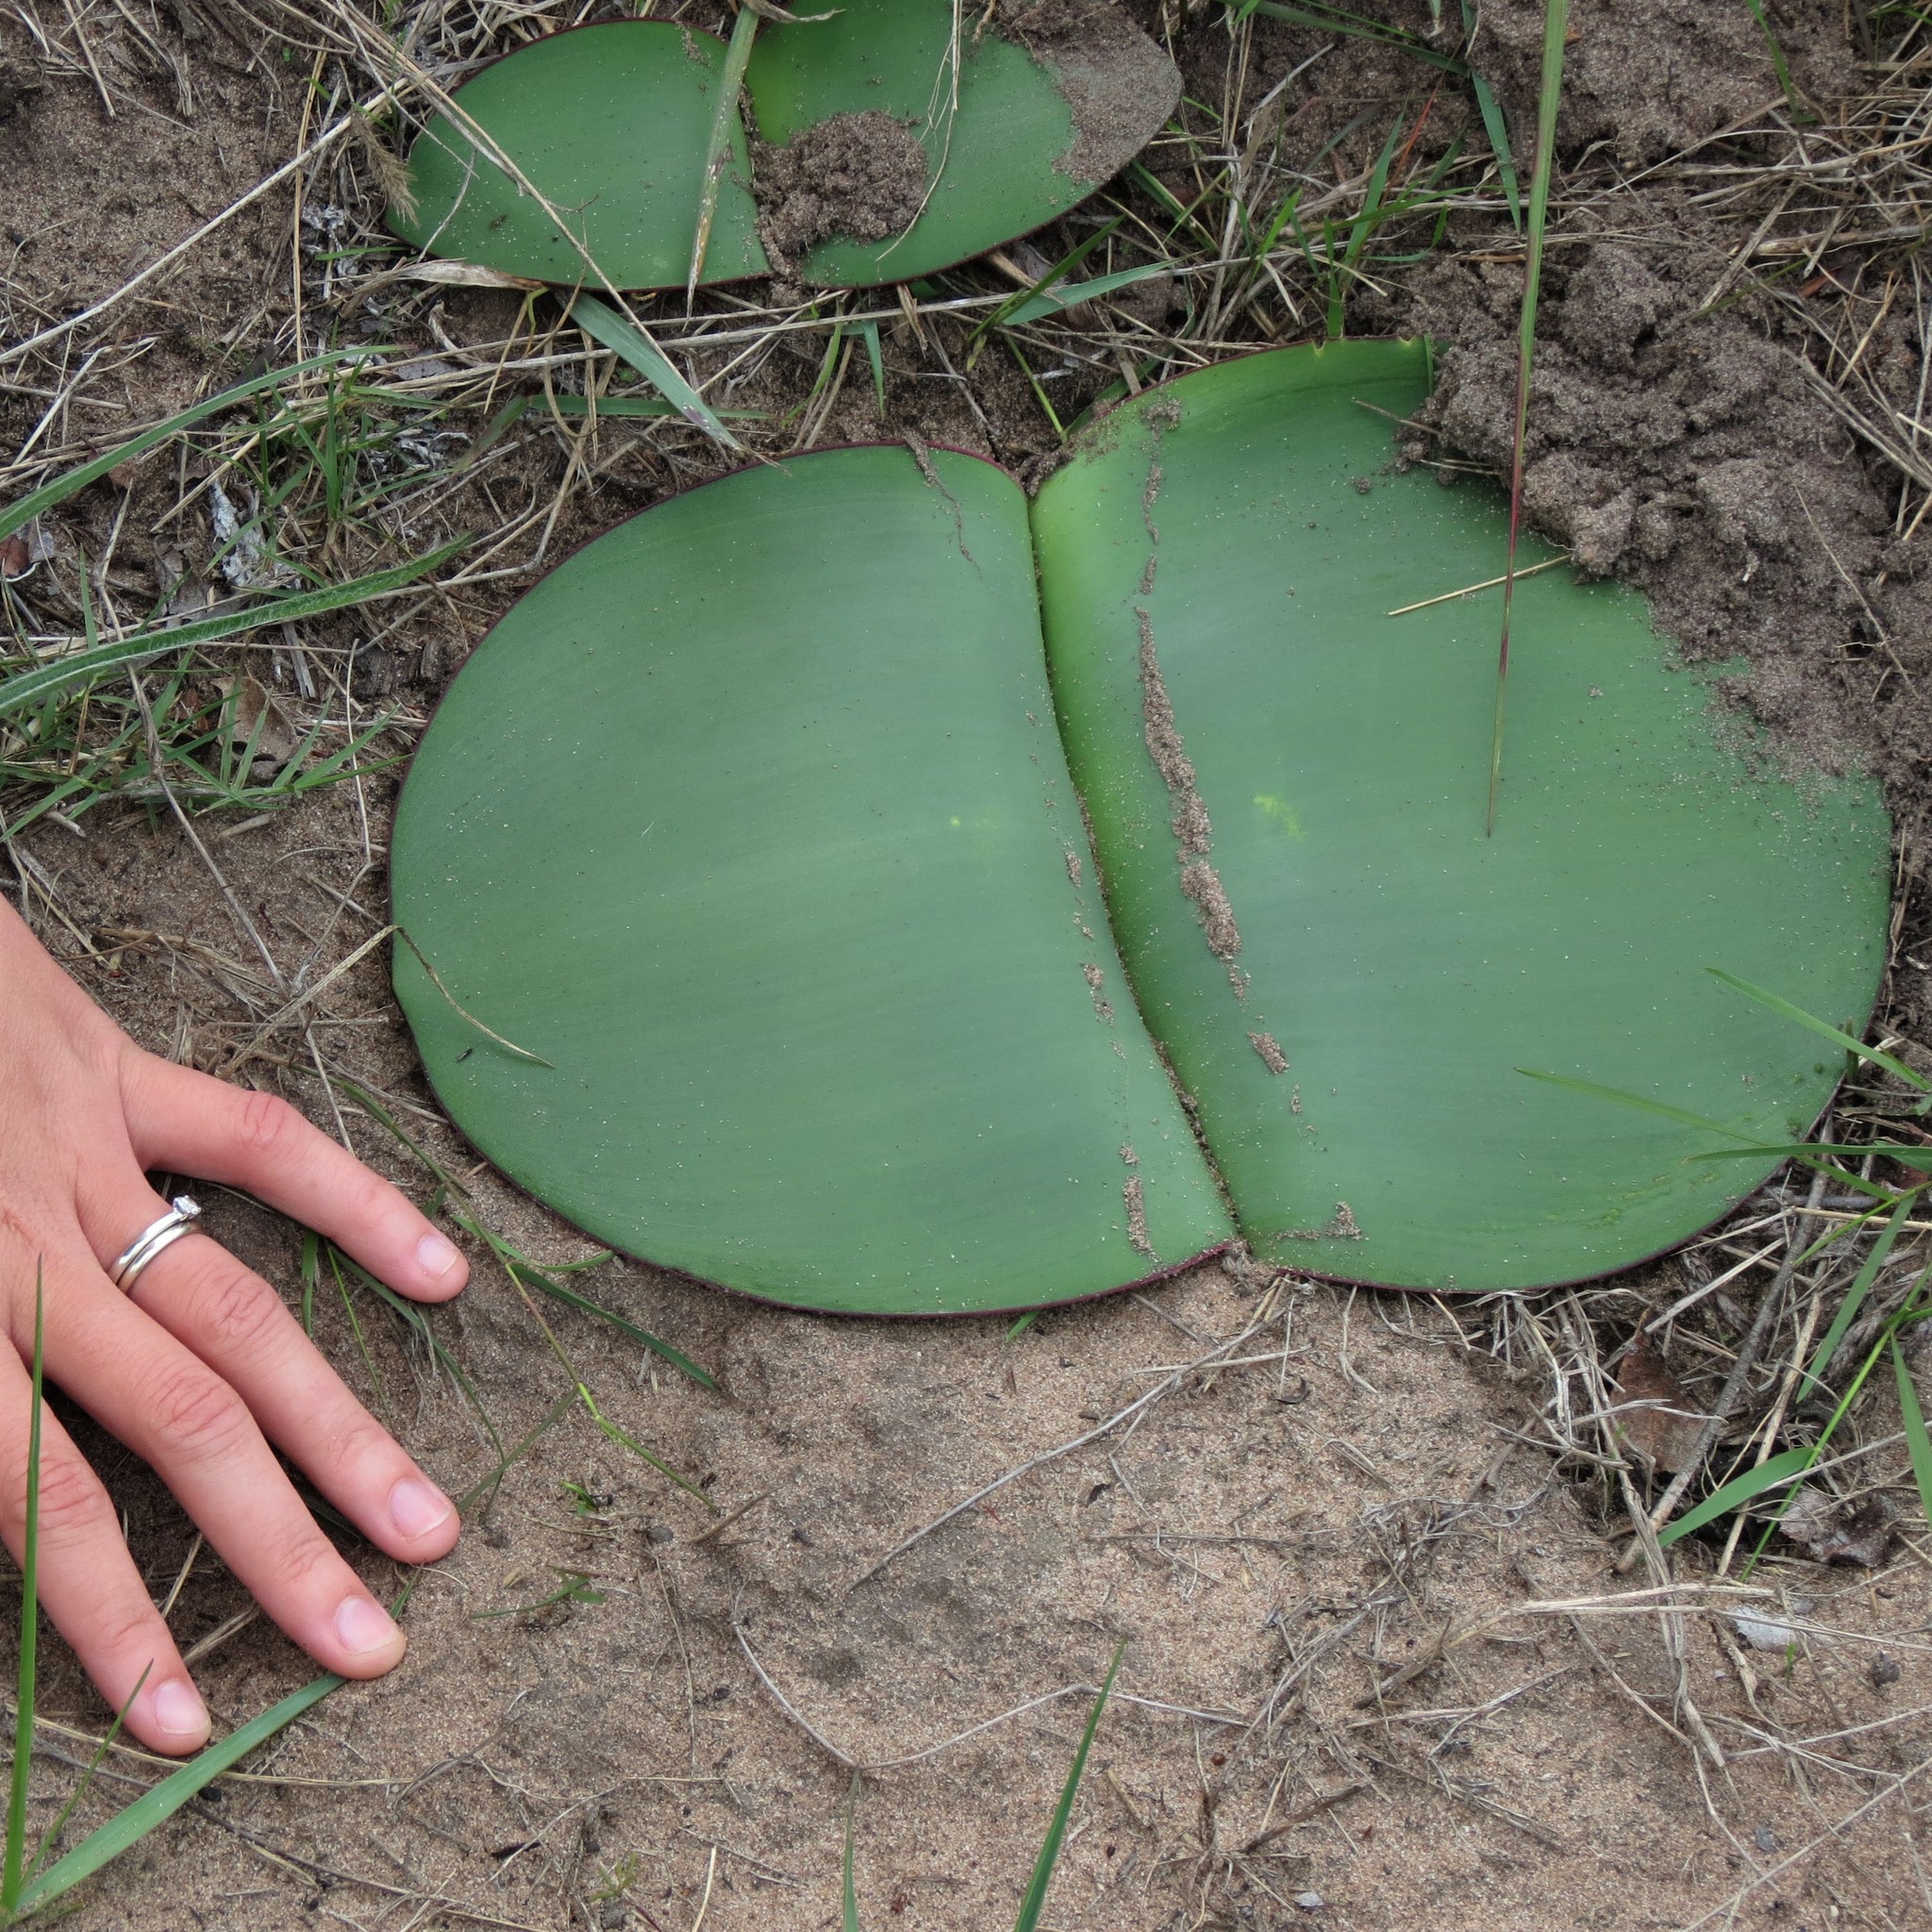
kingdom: Plantae
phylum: Tracheophyta
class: Liliopsida
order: Asparagales
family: Amaryllidaceae
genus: Haemanthus
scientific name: Haemanthus sanguineus
